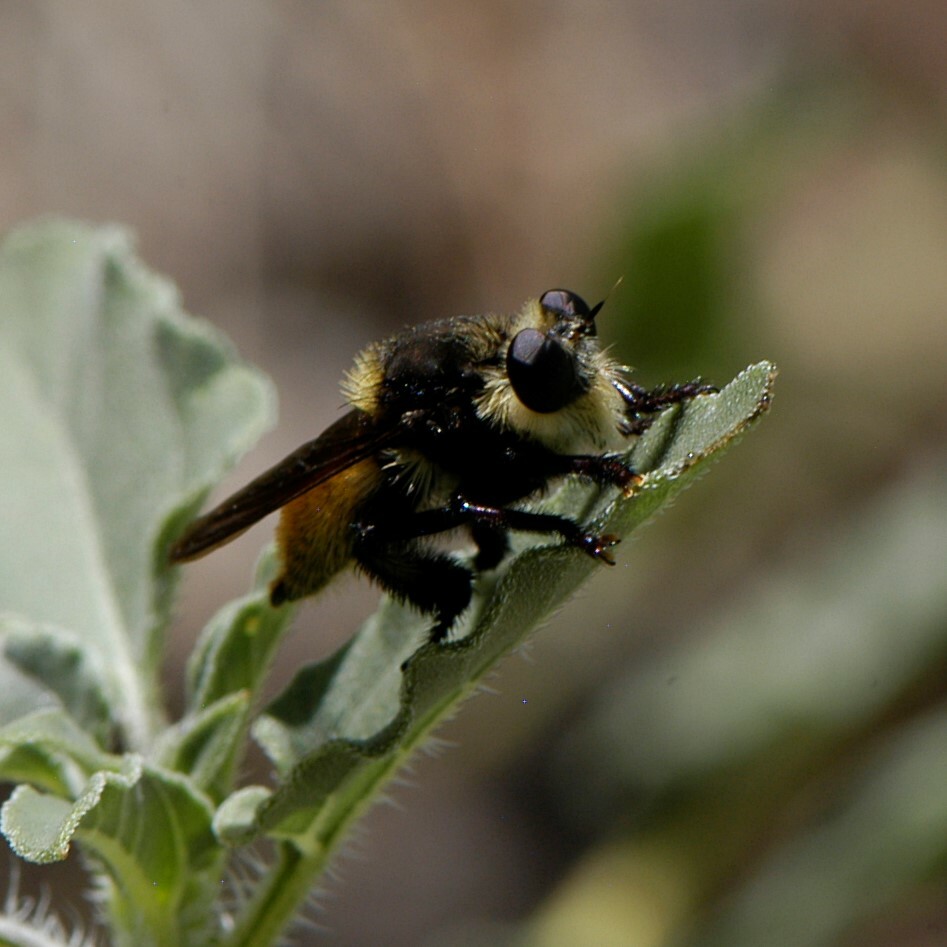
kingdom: Animalia
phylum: Arthropoda
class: Insecta
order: Diptera
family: Asilidae
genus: Mallophora
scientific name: Mallophora fautrix
